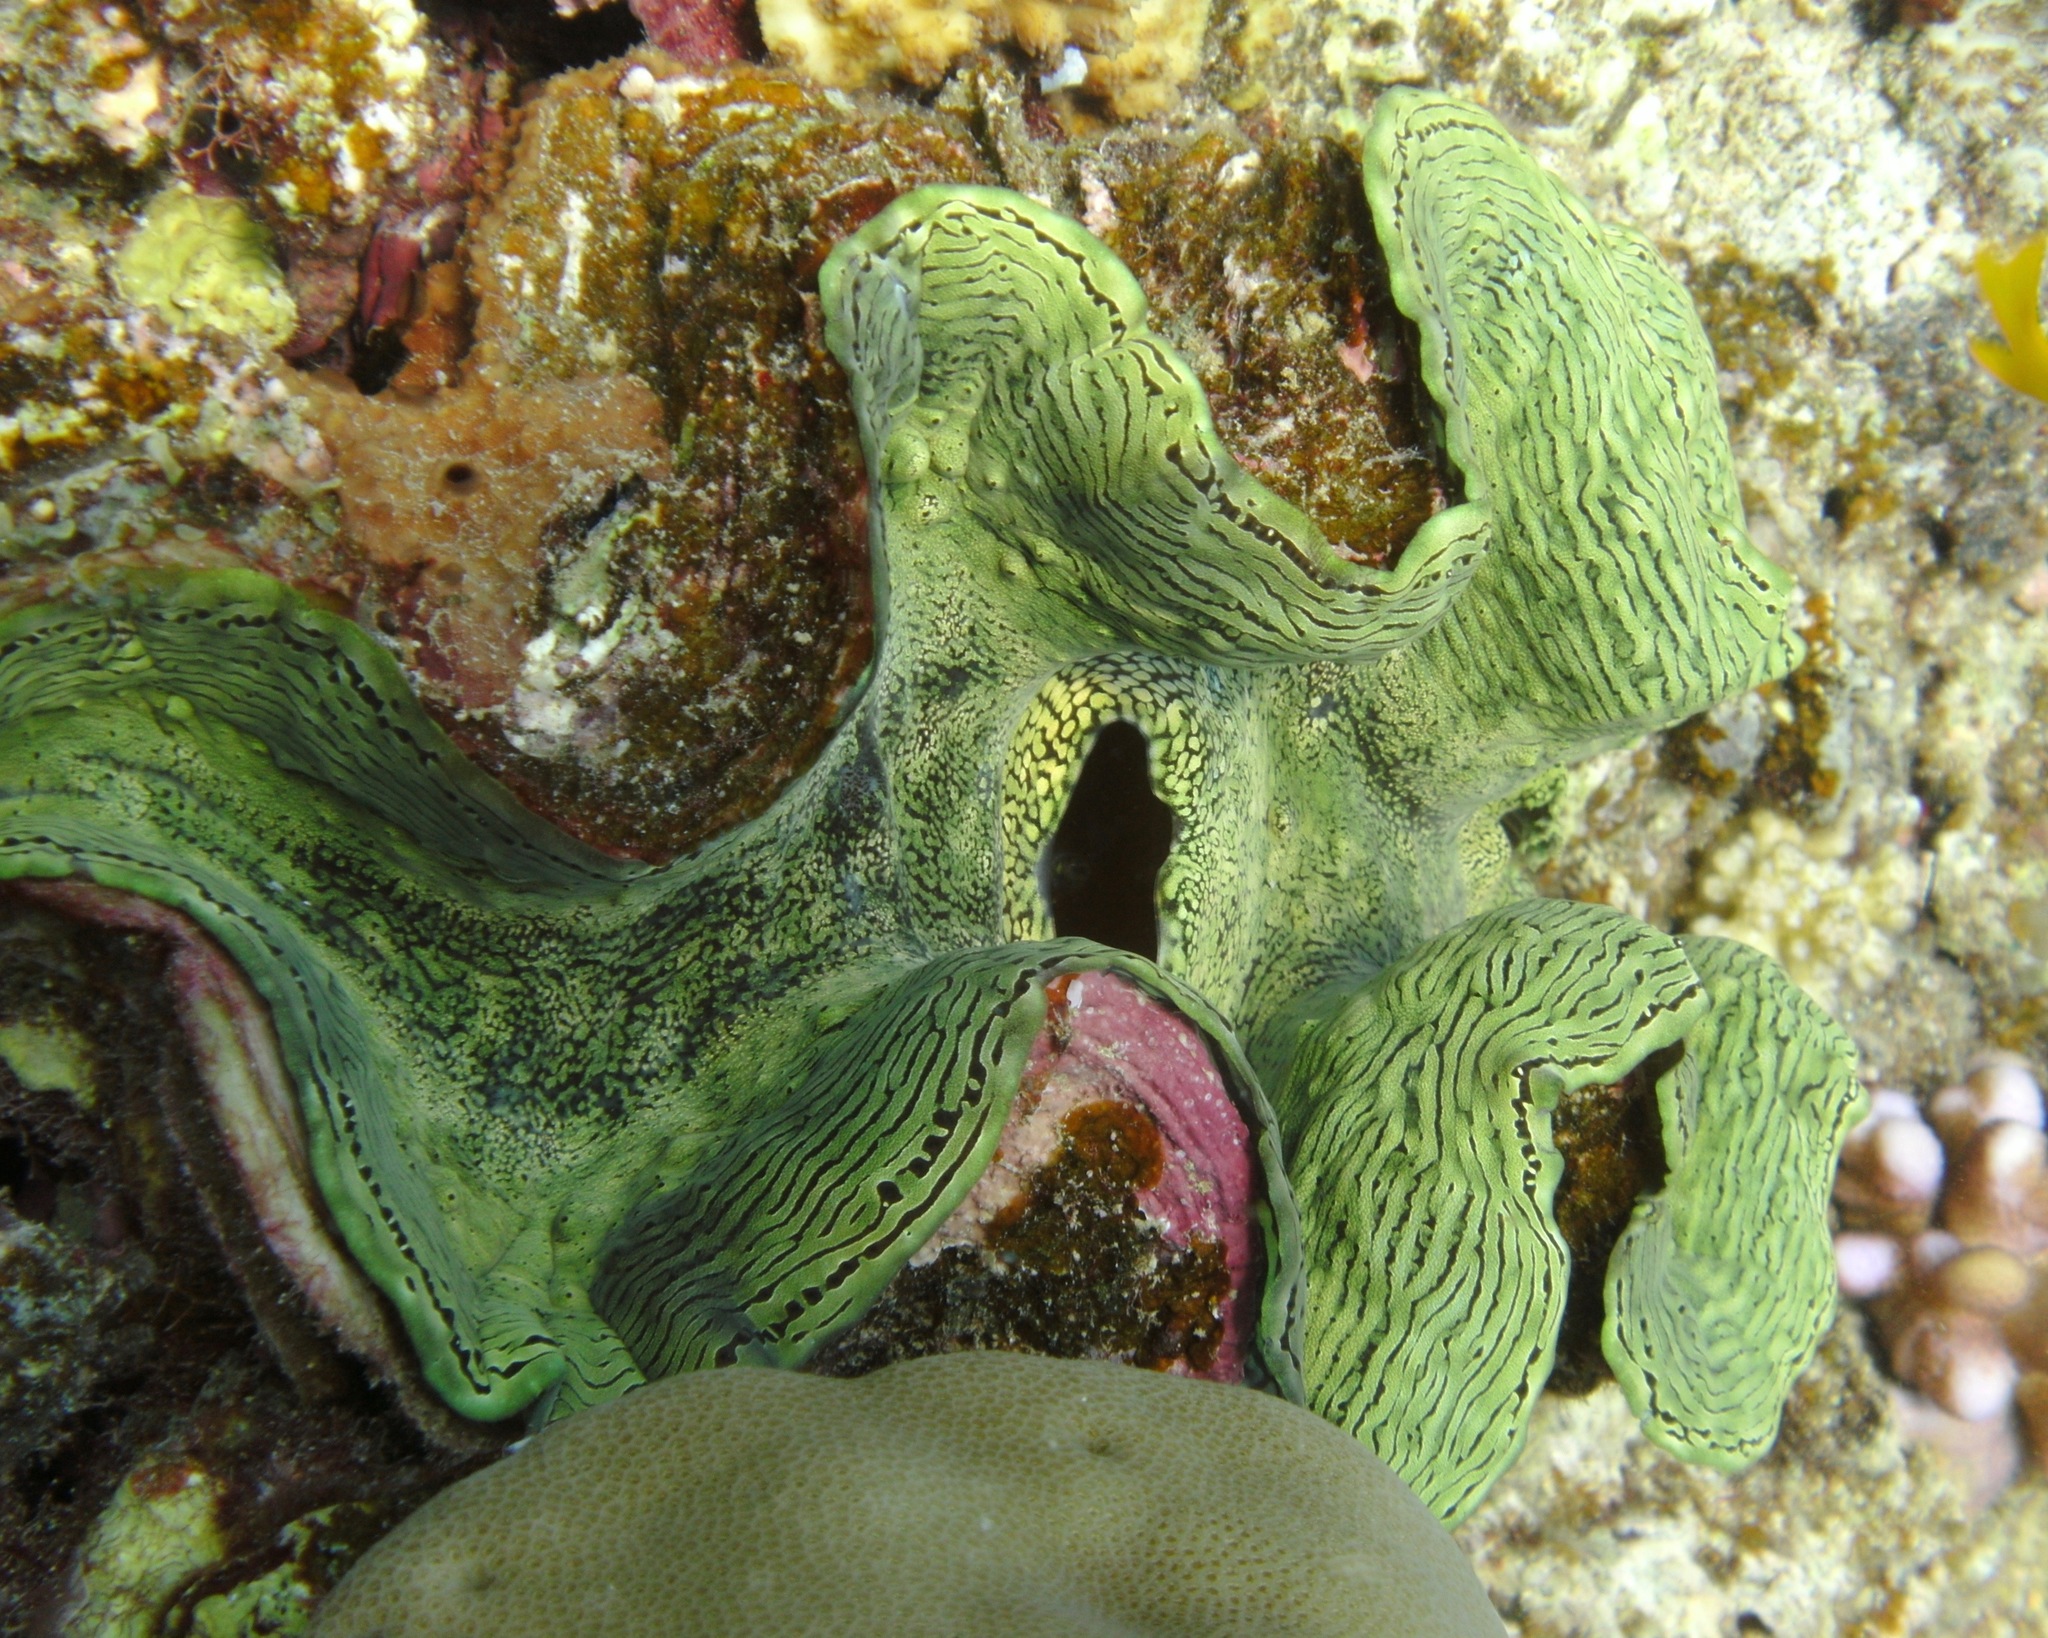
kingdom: Animalia
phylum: Mollusca
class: Bivalvia
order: Cardiida
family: Cardiidae
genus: Tridacna
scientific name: Tridacna squamosa
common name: Fluted clam
